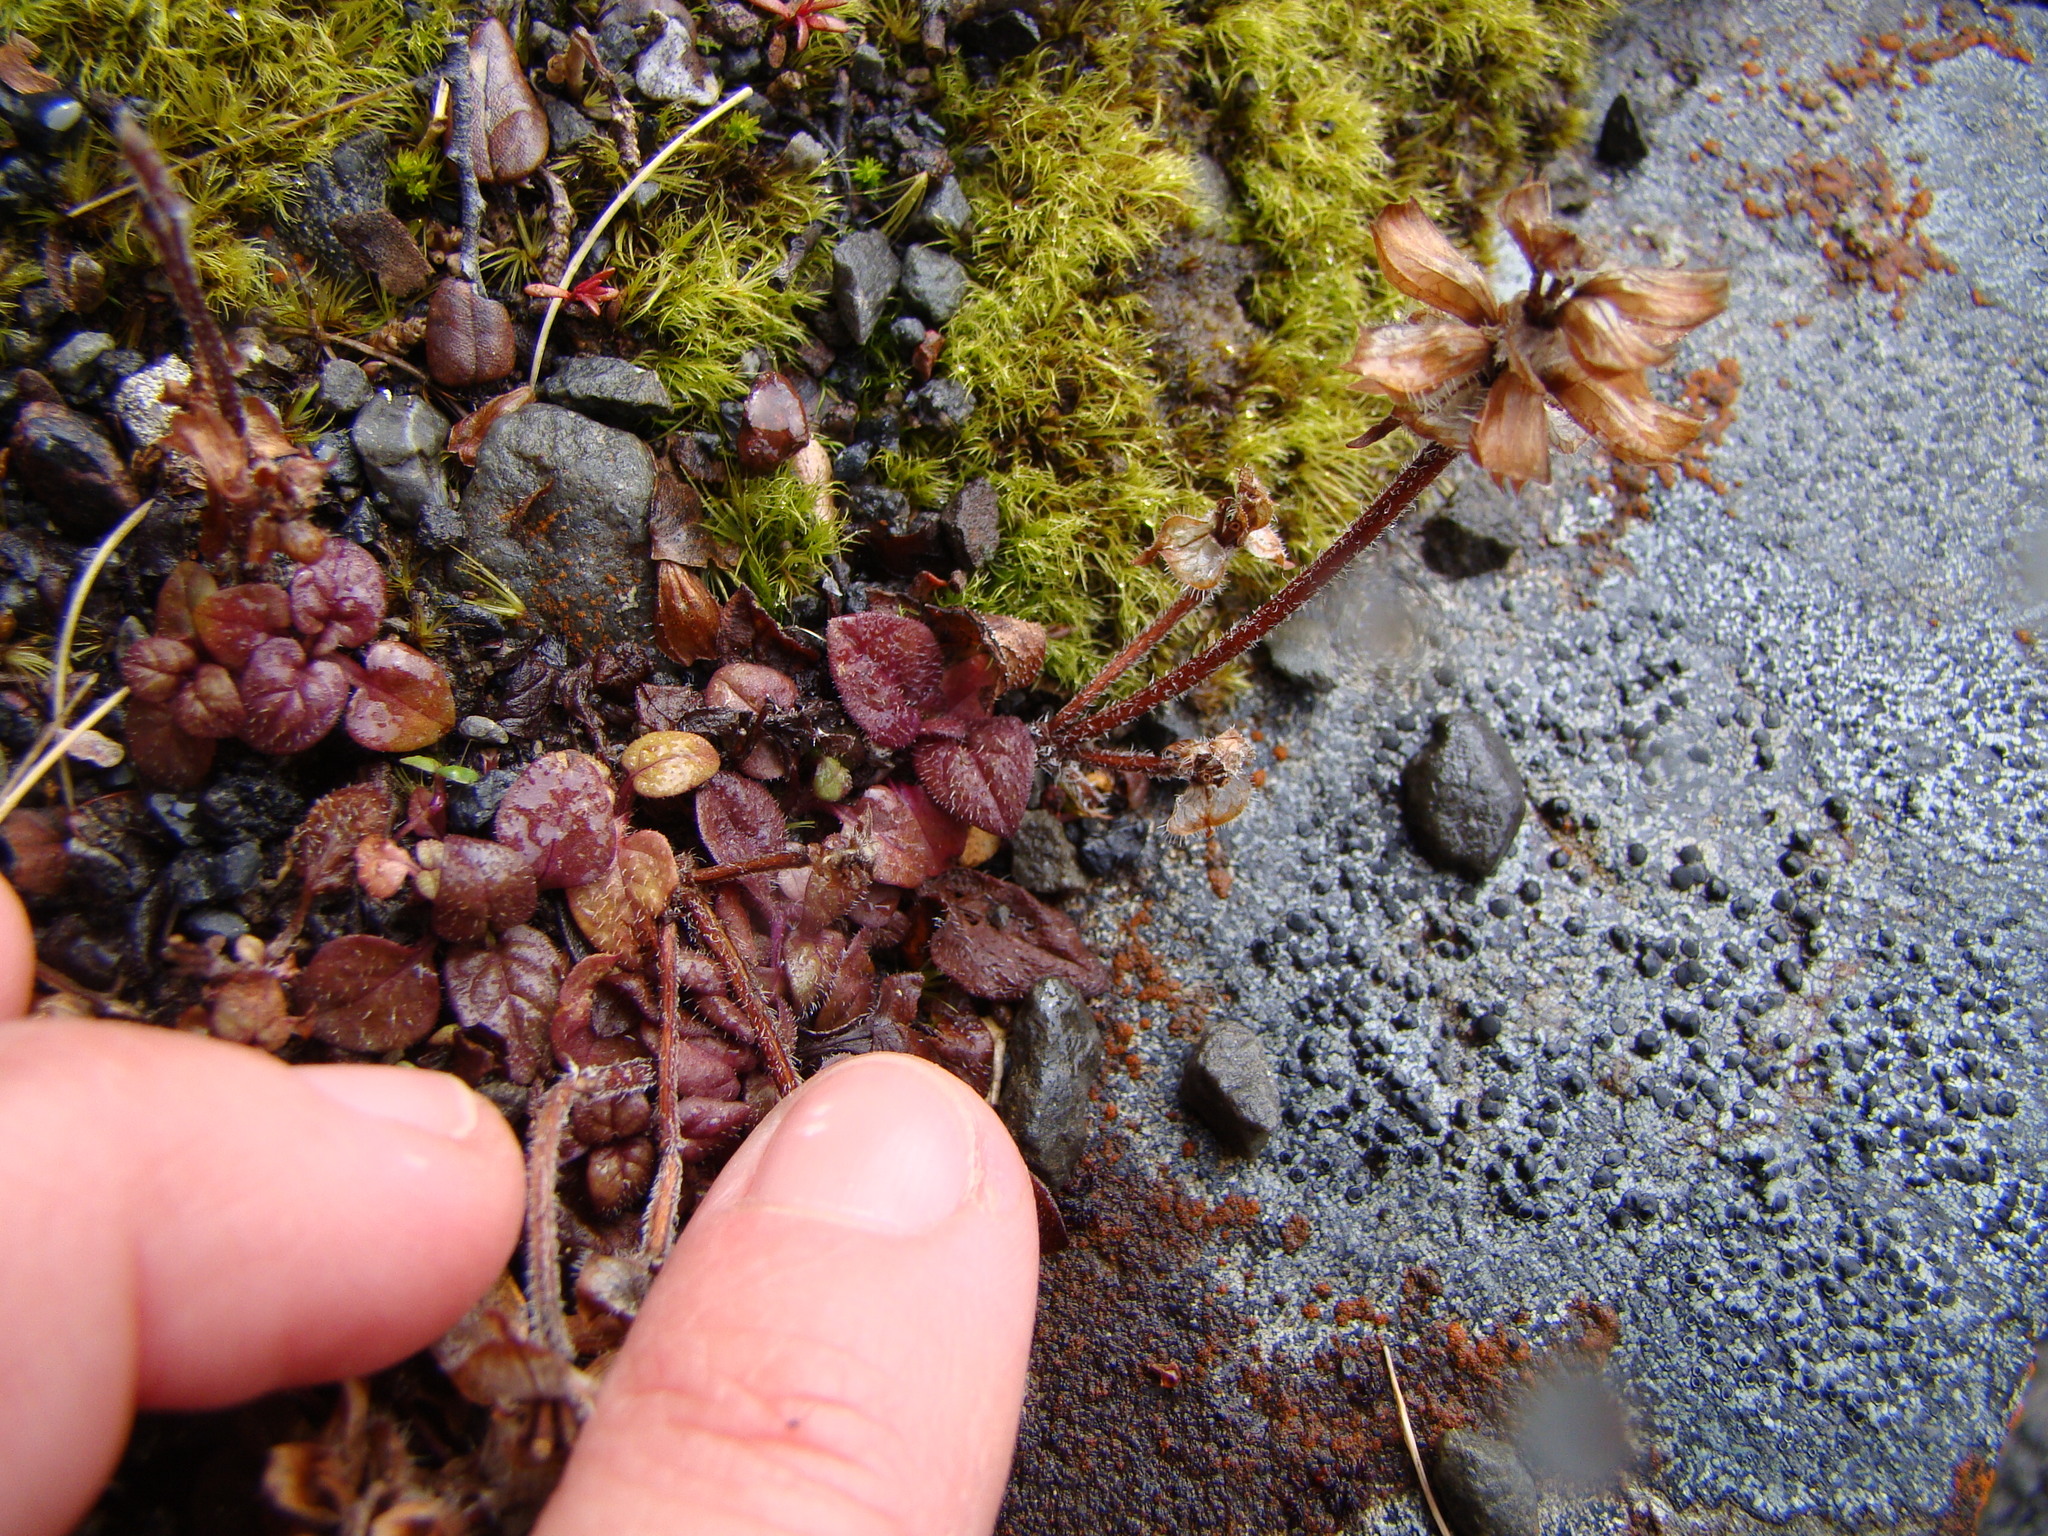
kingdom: Plantae
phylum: Tracheophyta
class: Magnoliopsida
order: Lamiales
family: Lamiaceae
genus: Prunella
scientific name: Prunella vulgaris
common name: Heal-all
